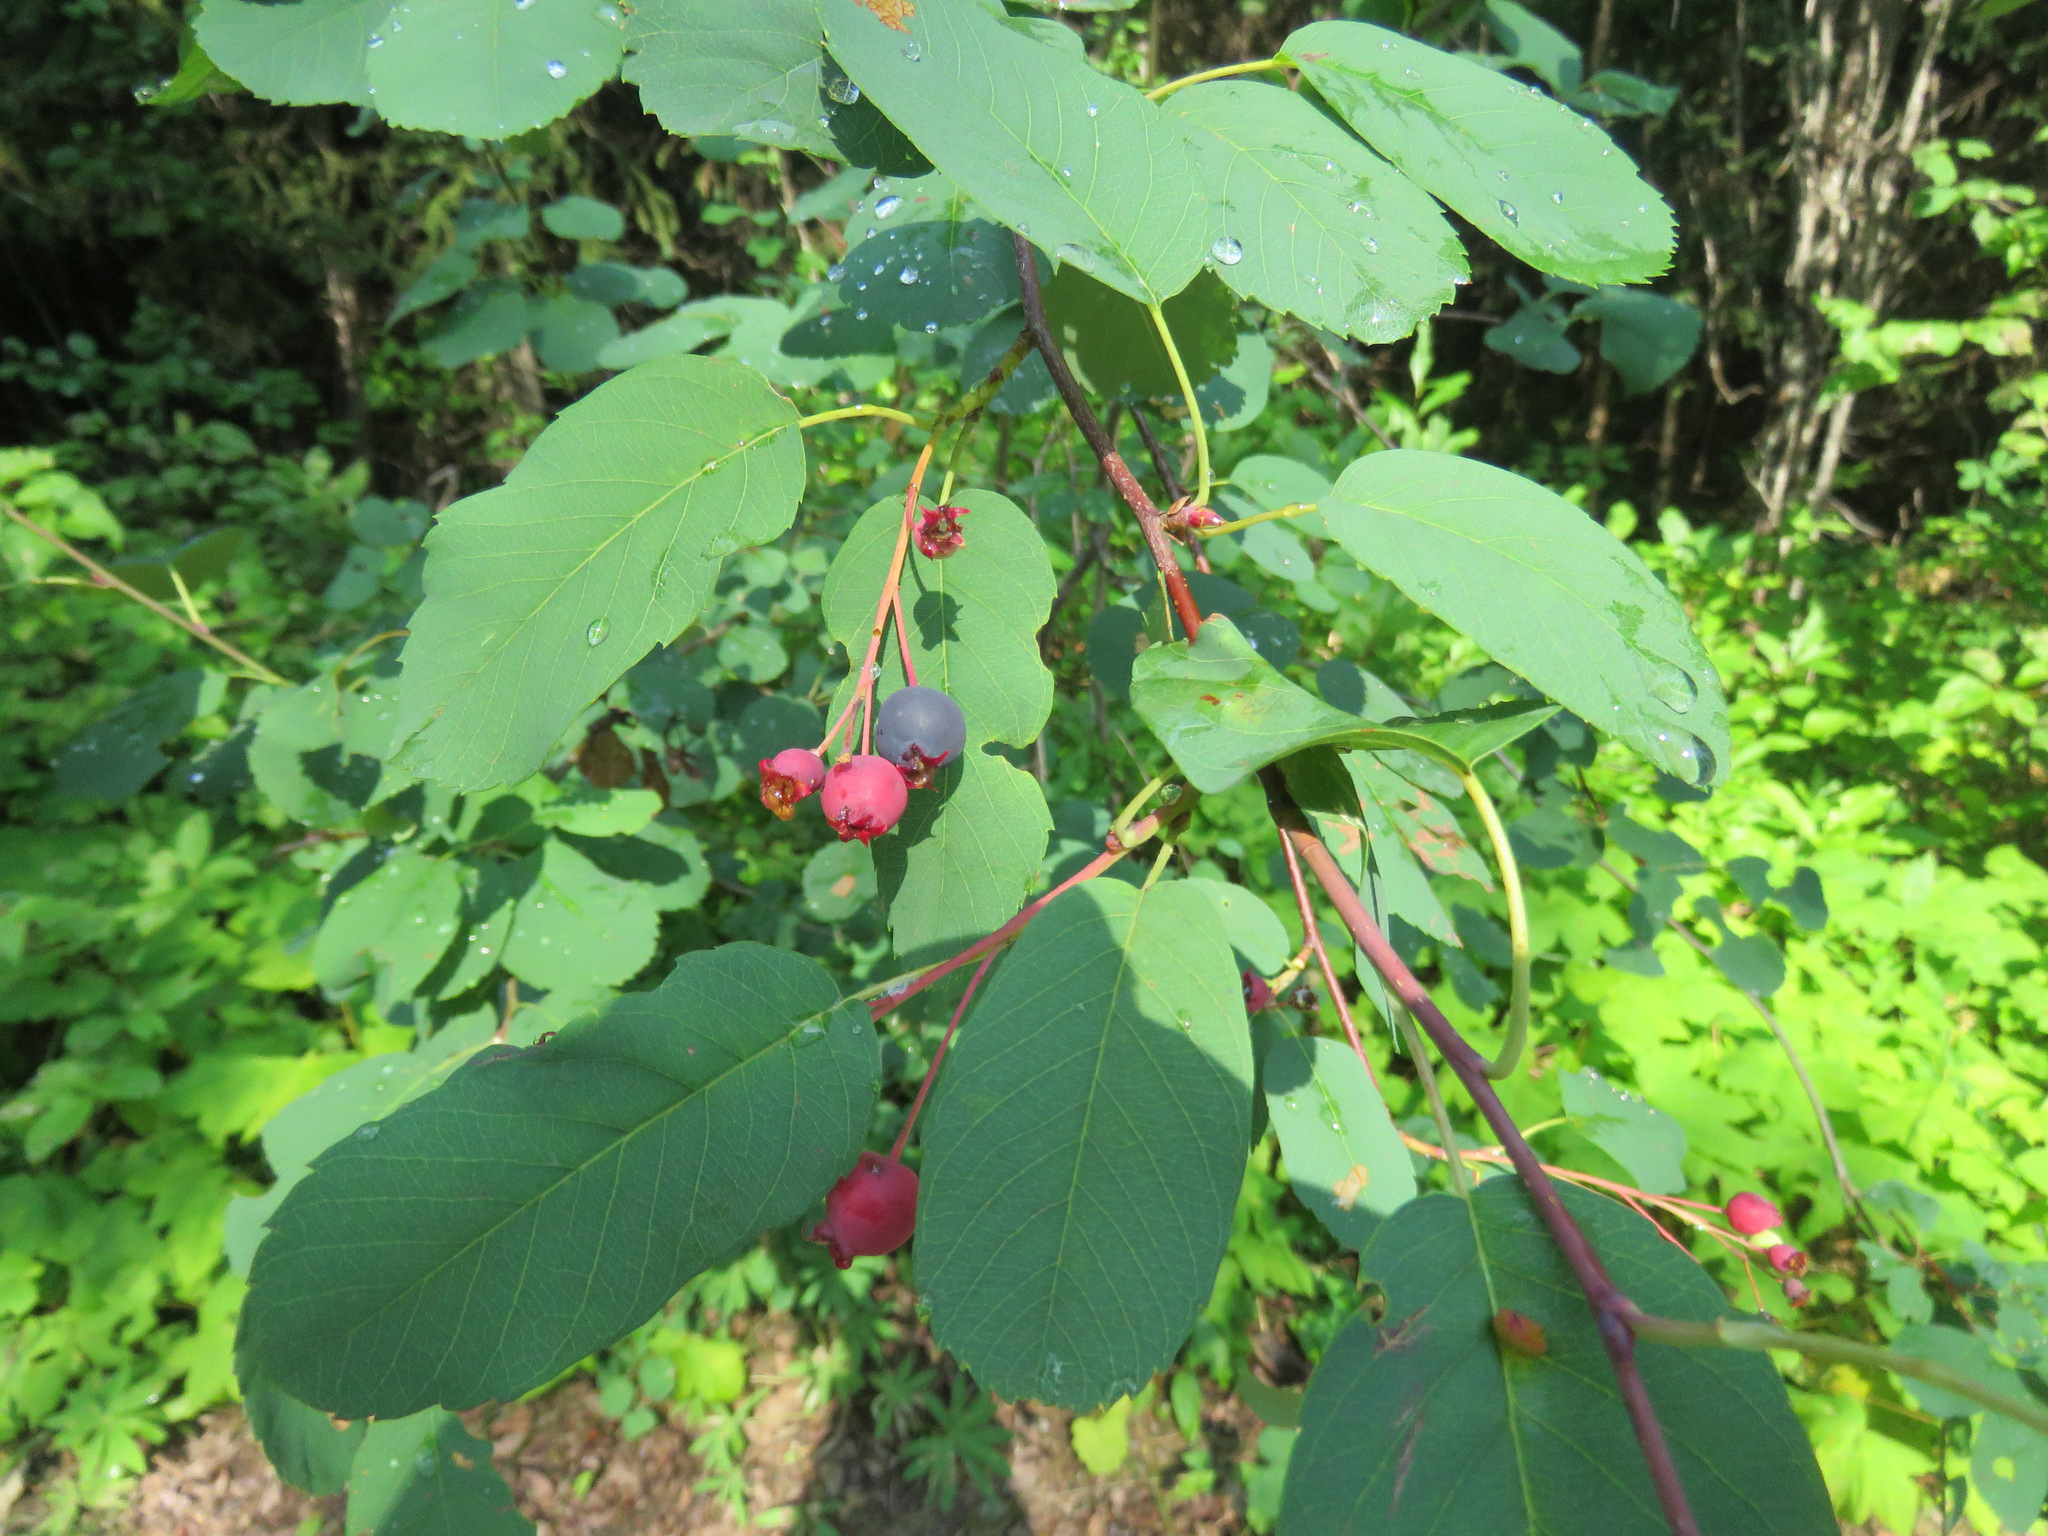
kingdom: Plantae
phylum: Tracheophyta
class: Magnoliopsida
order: Rosales
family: Rosaceae
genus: Amelanchier
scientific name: Amelanchier alnifolia
